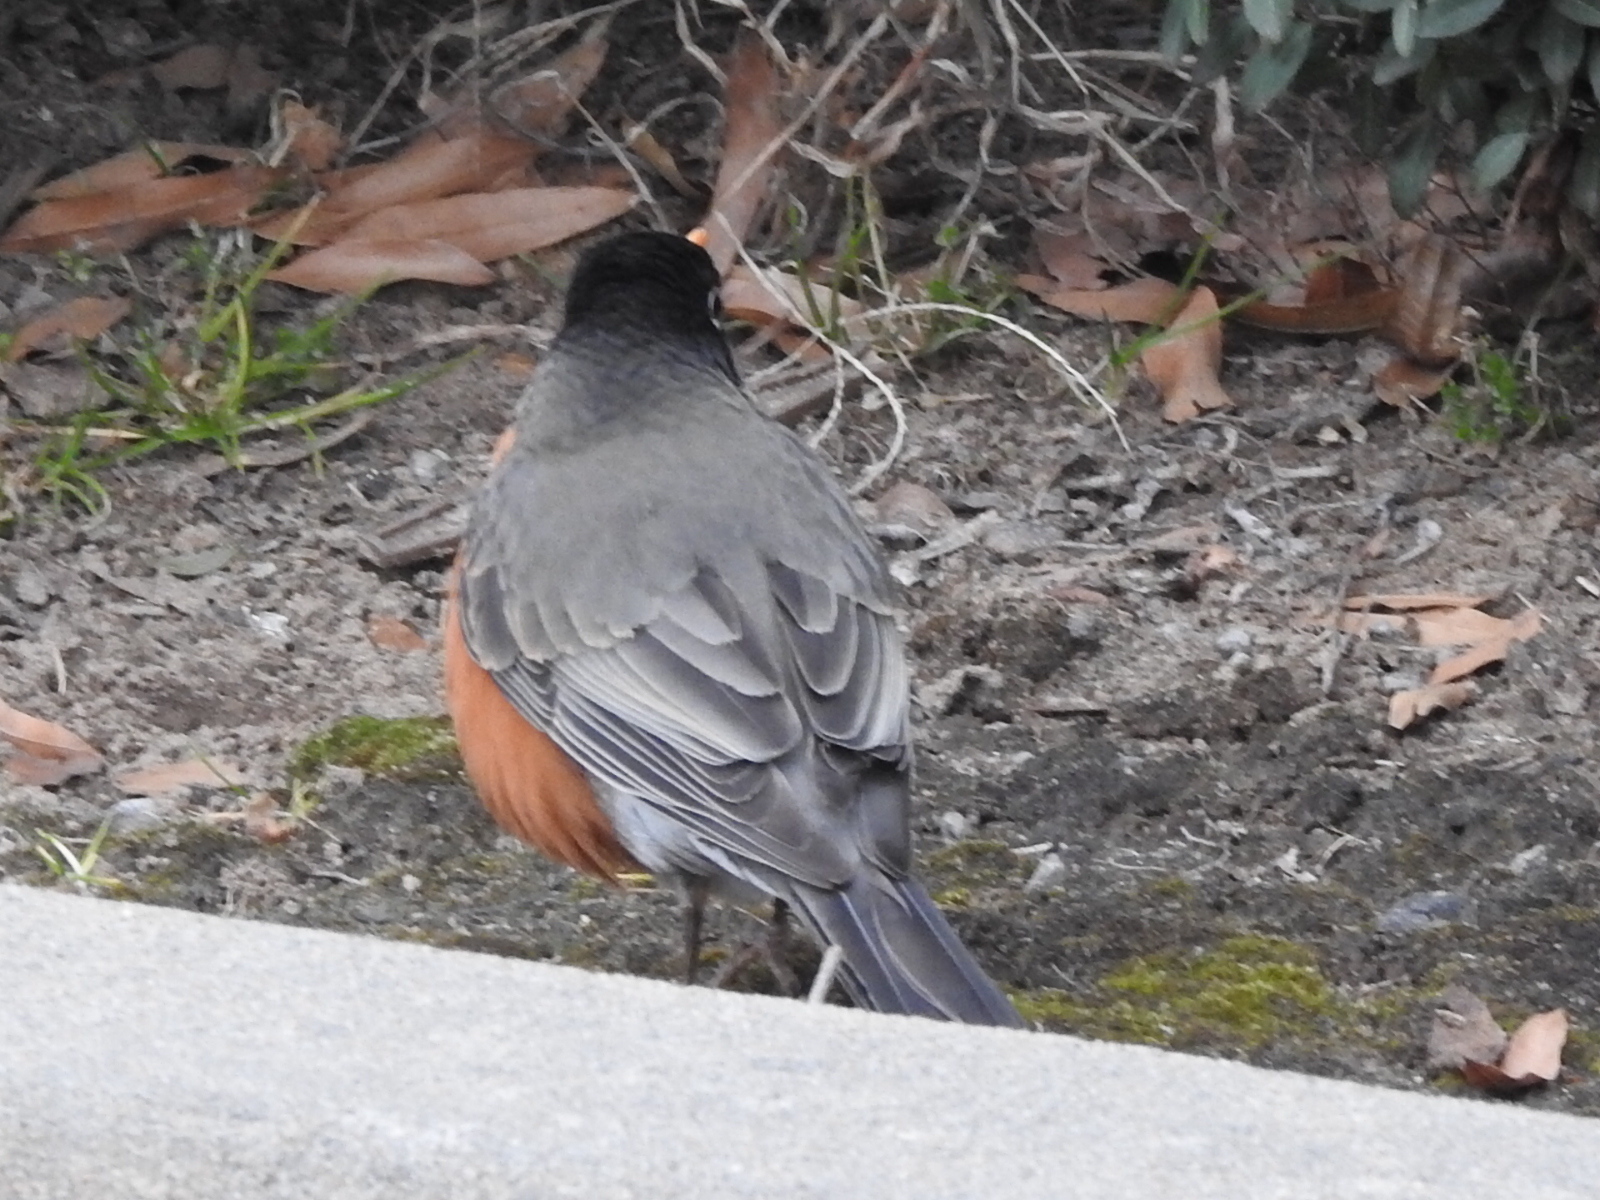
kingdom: Animalia
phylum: Chordata
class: Aves
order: Passeriformes
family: Turdidae
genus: Turdus
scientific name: Turdus migratorius
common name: American robin
